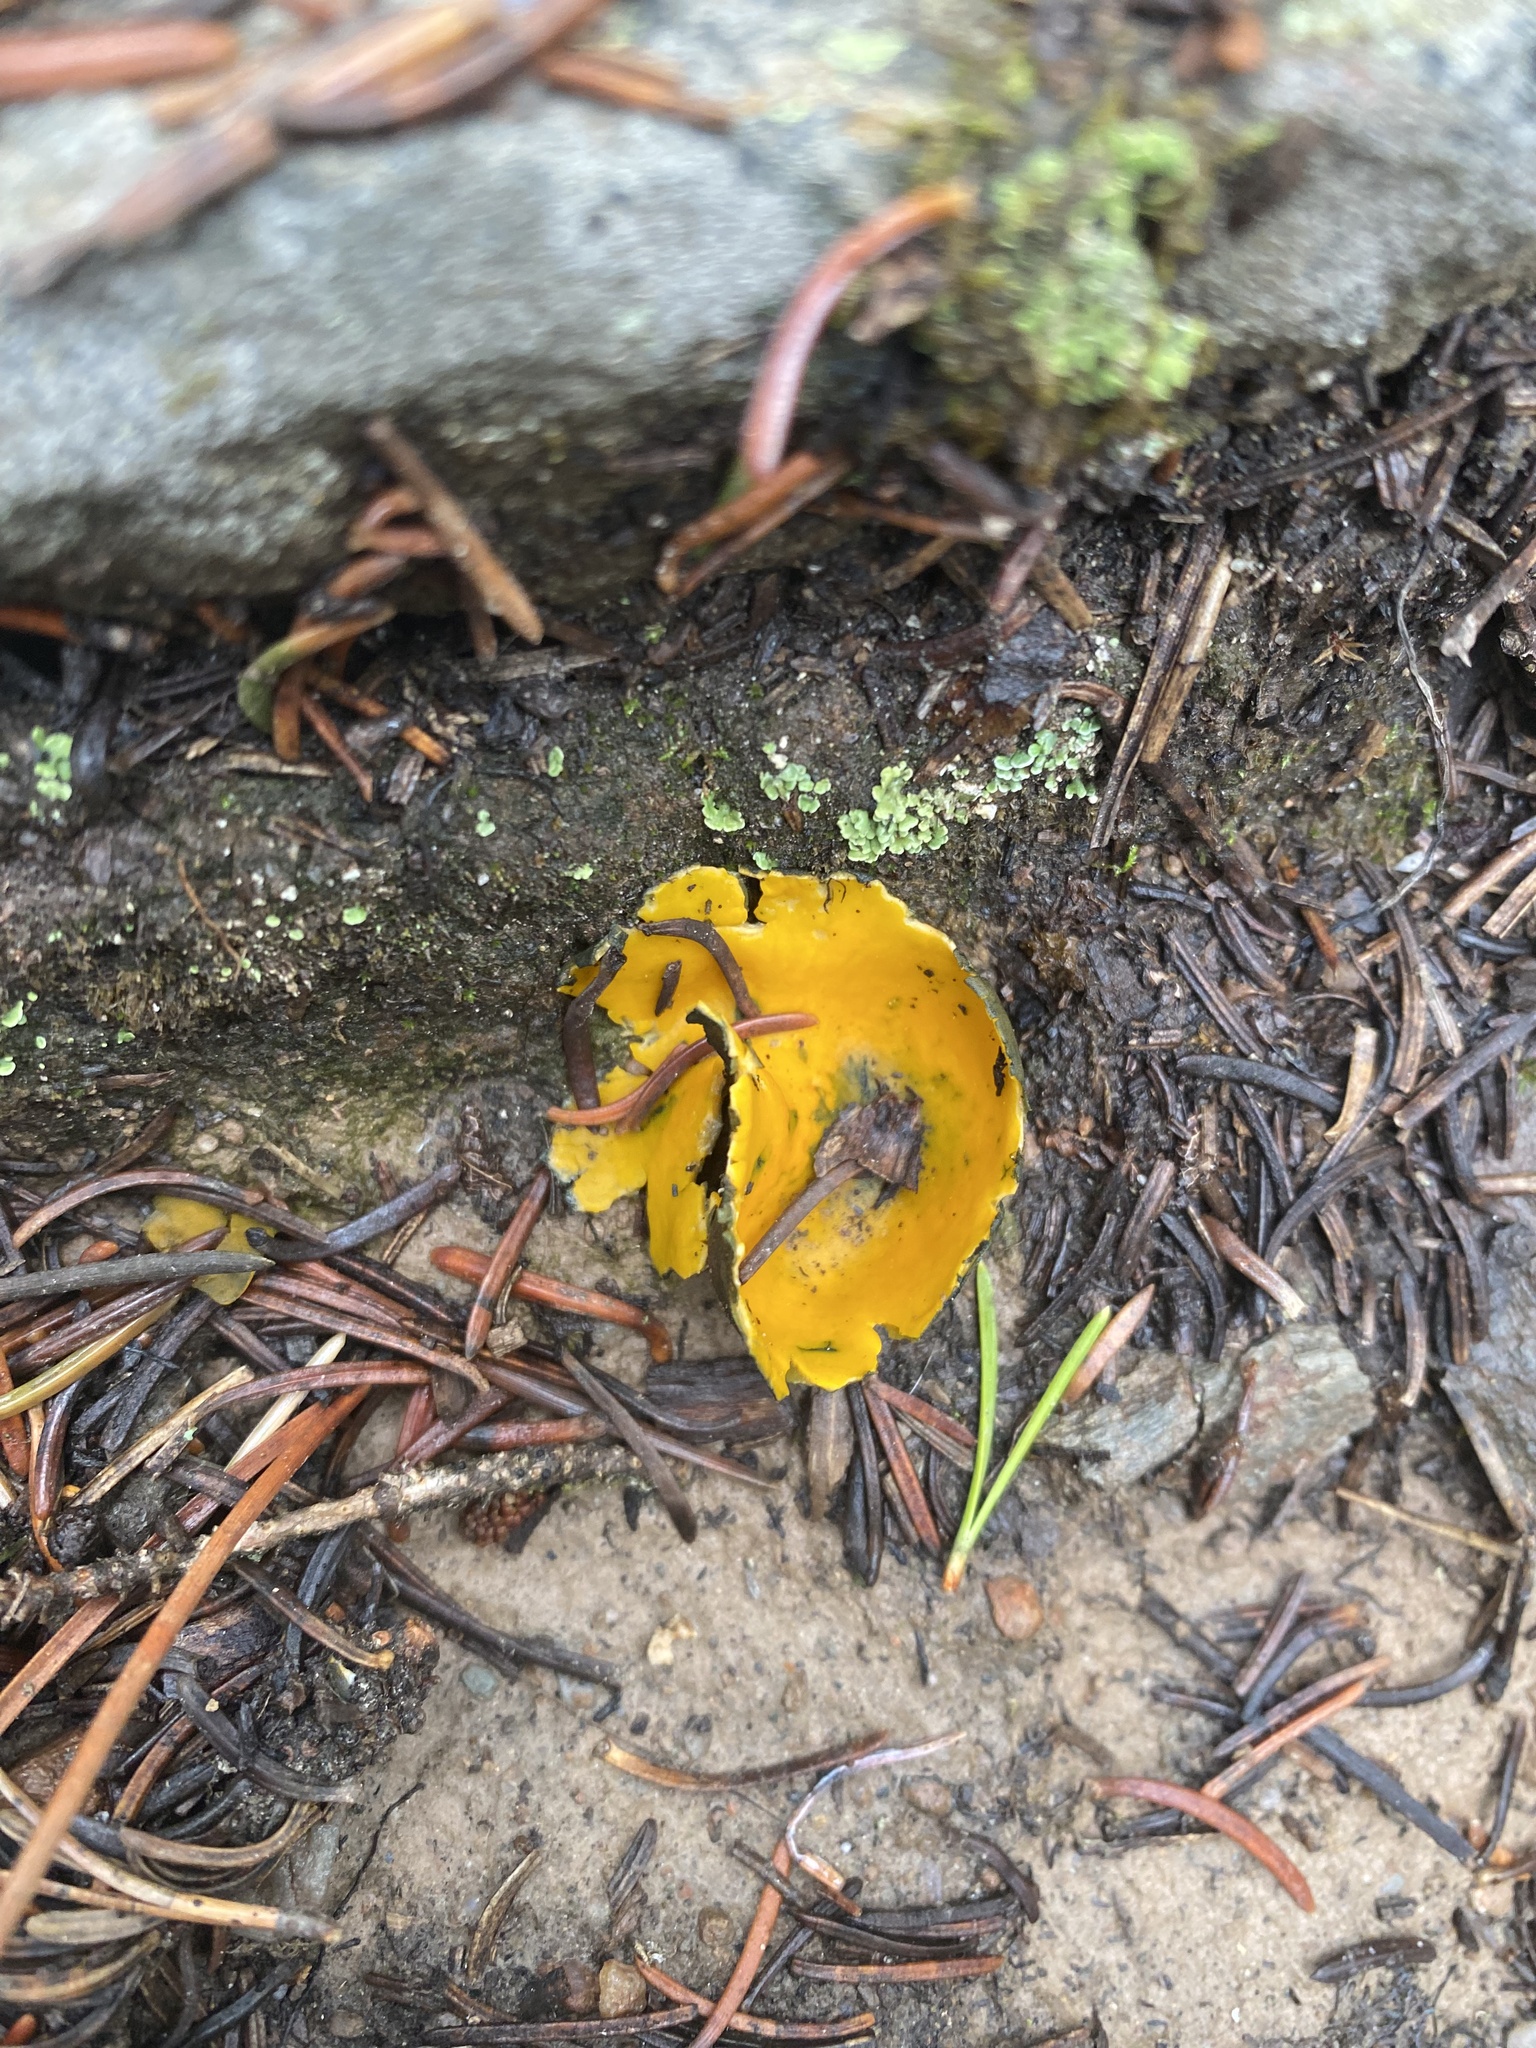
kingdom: Fungi
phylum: Ascomycota
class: Pezizomycetes
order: Pezizales
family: Caloscyphaceae
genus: Caloscypha
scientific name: Caloscypha fulgens
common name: Golden cup
